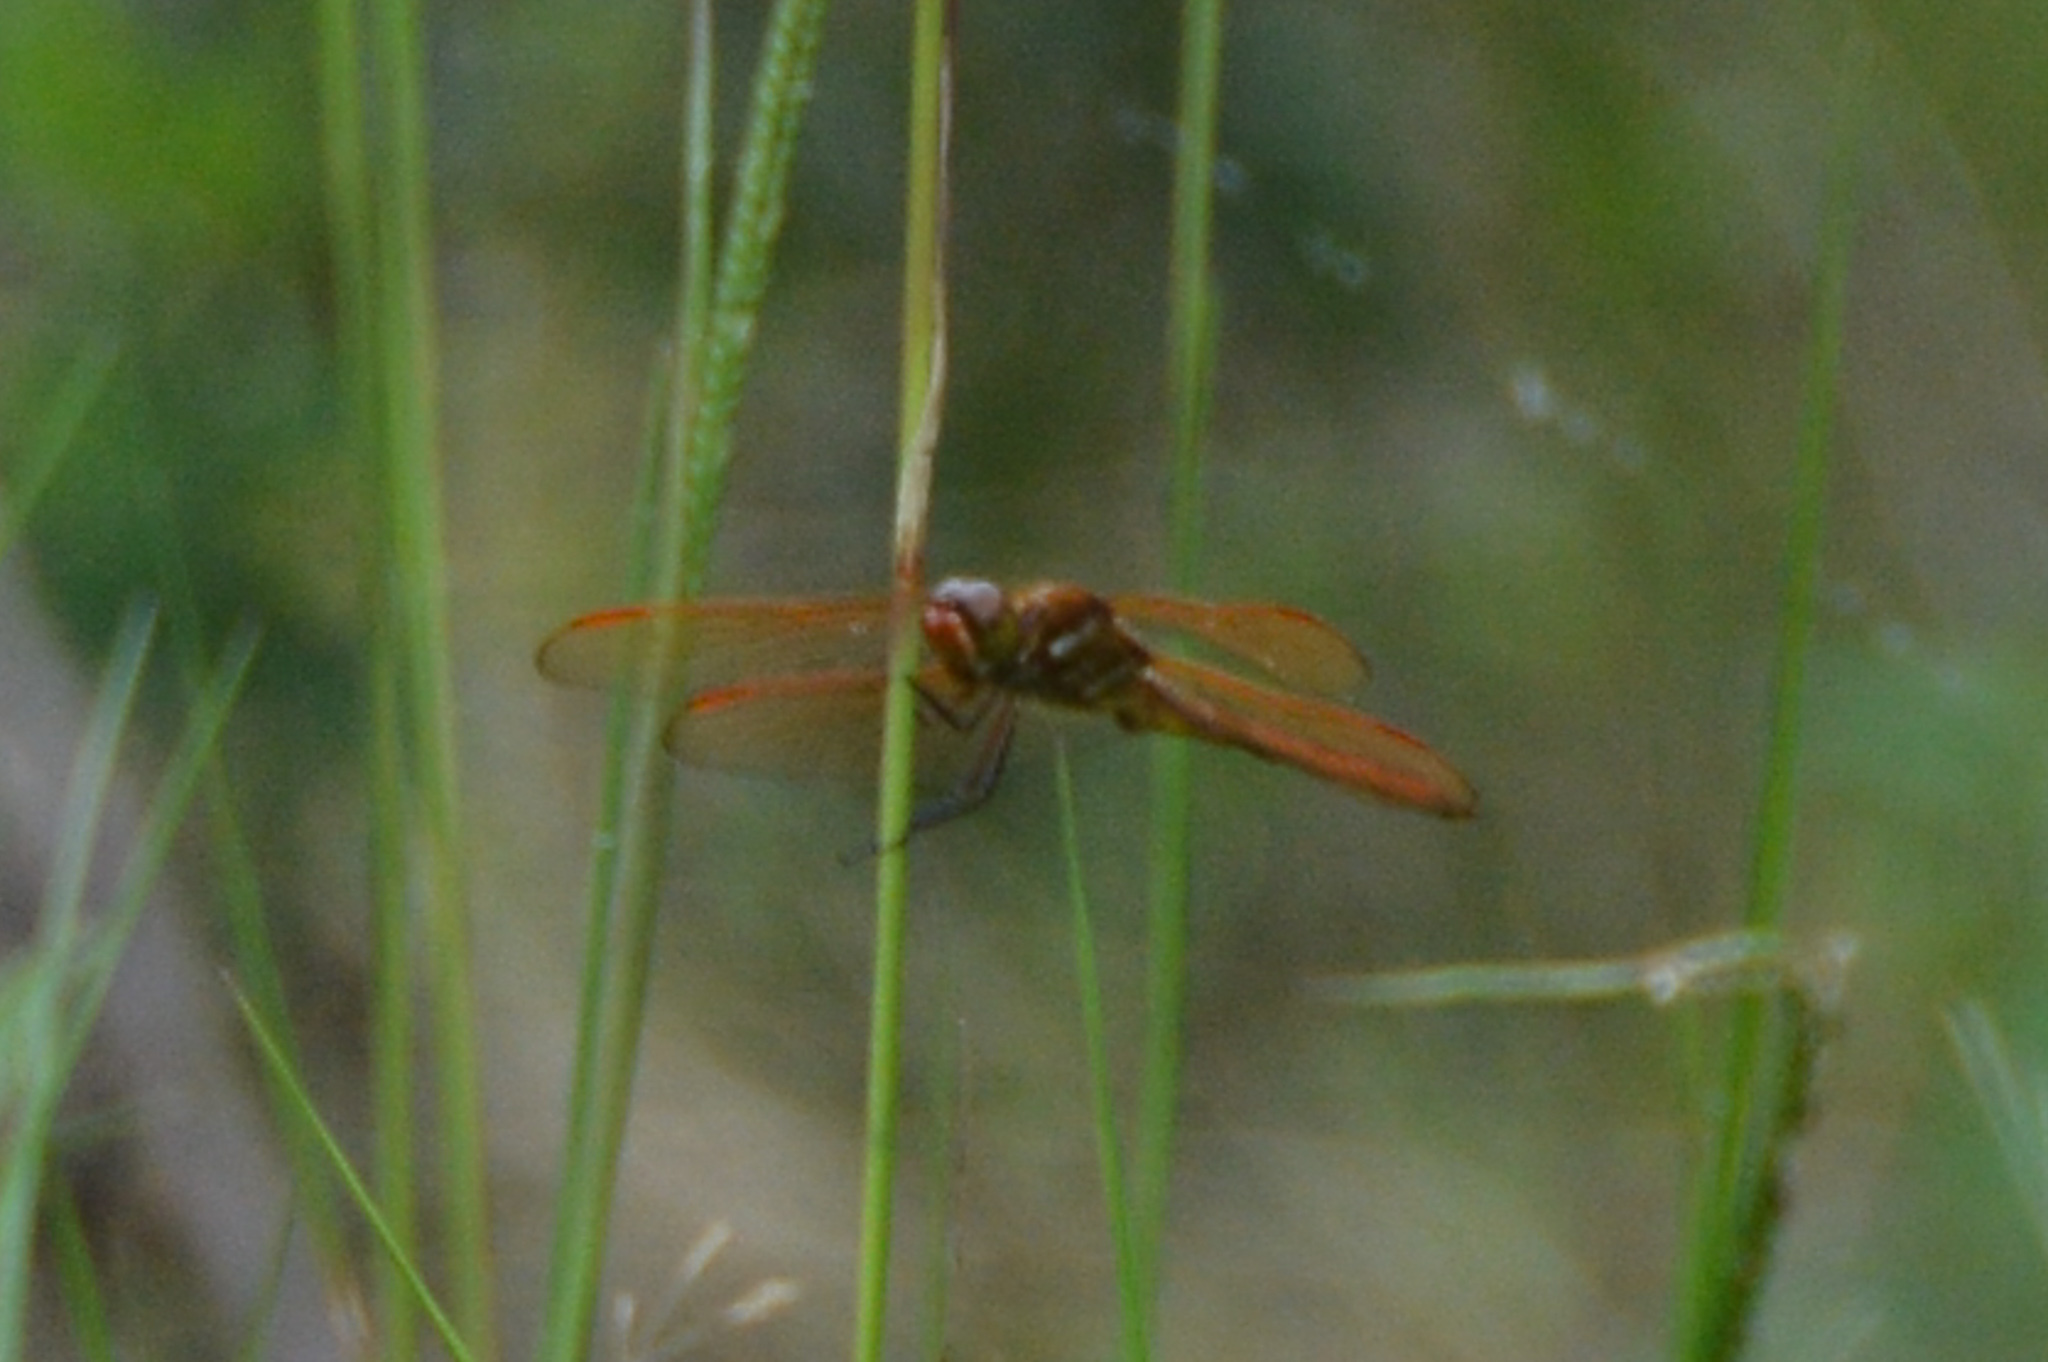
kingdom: Animalia
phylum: Arthropoda
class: Insecta
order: Odonata
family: Libellulidae
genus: Libellula
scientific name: Libellula auripennis
